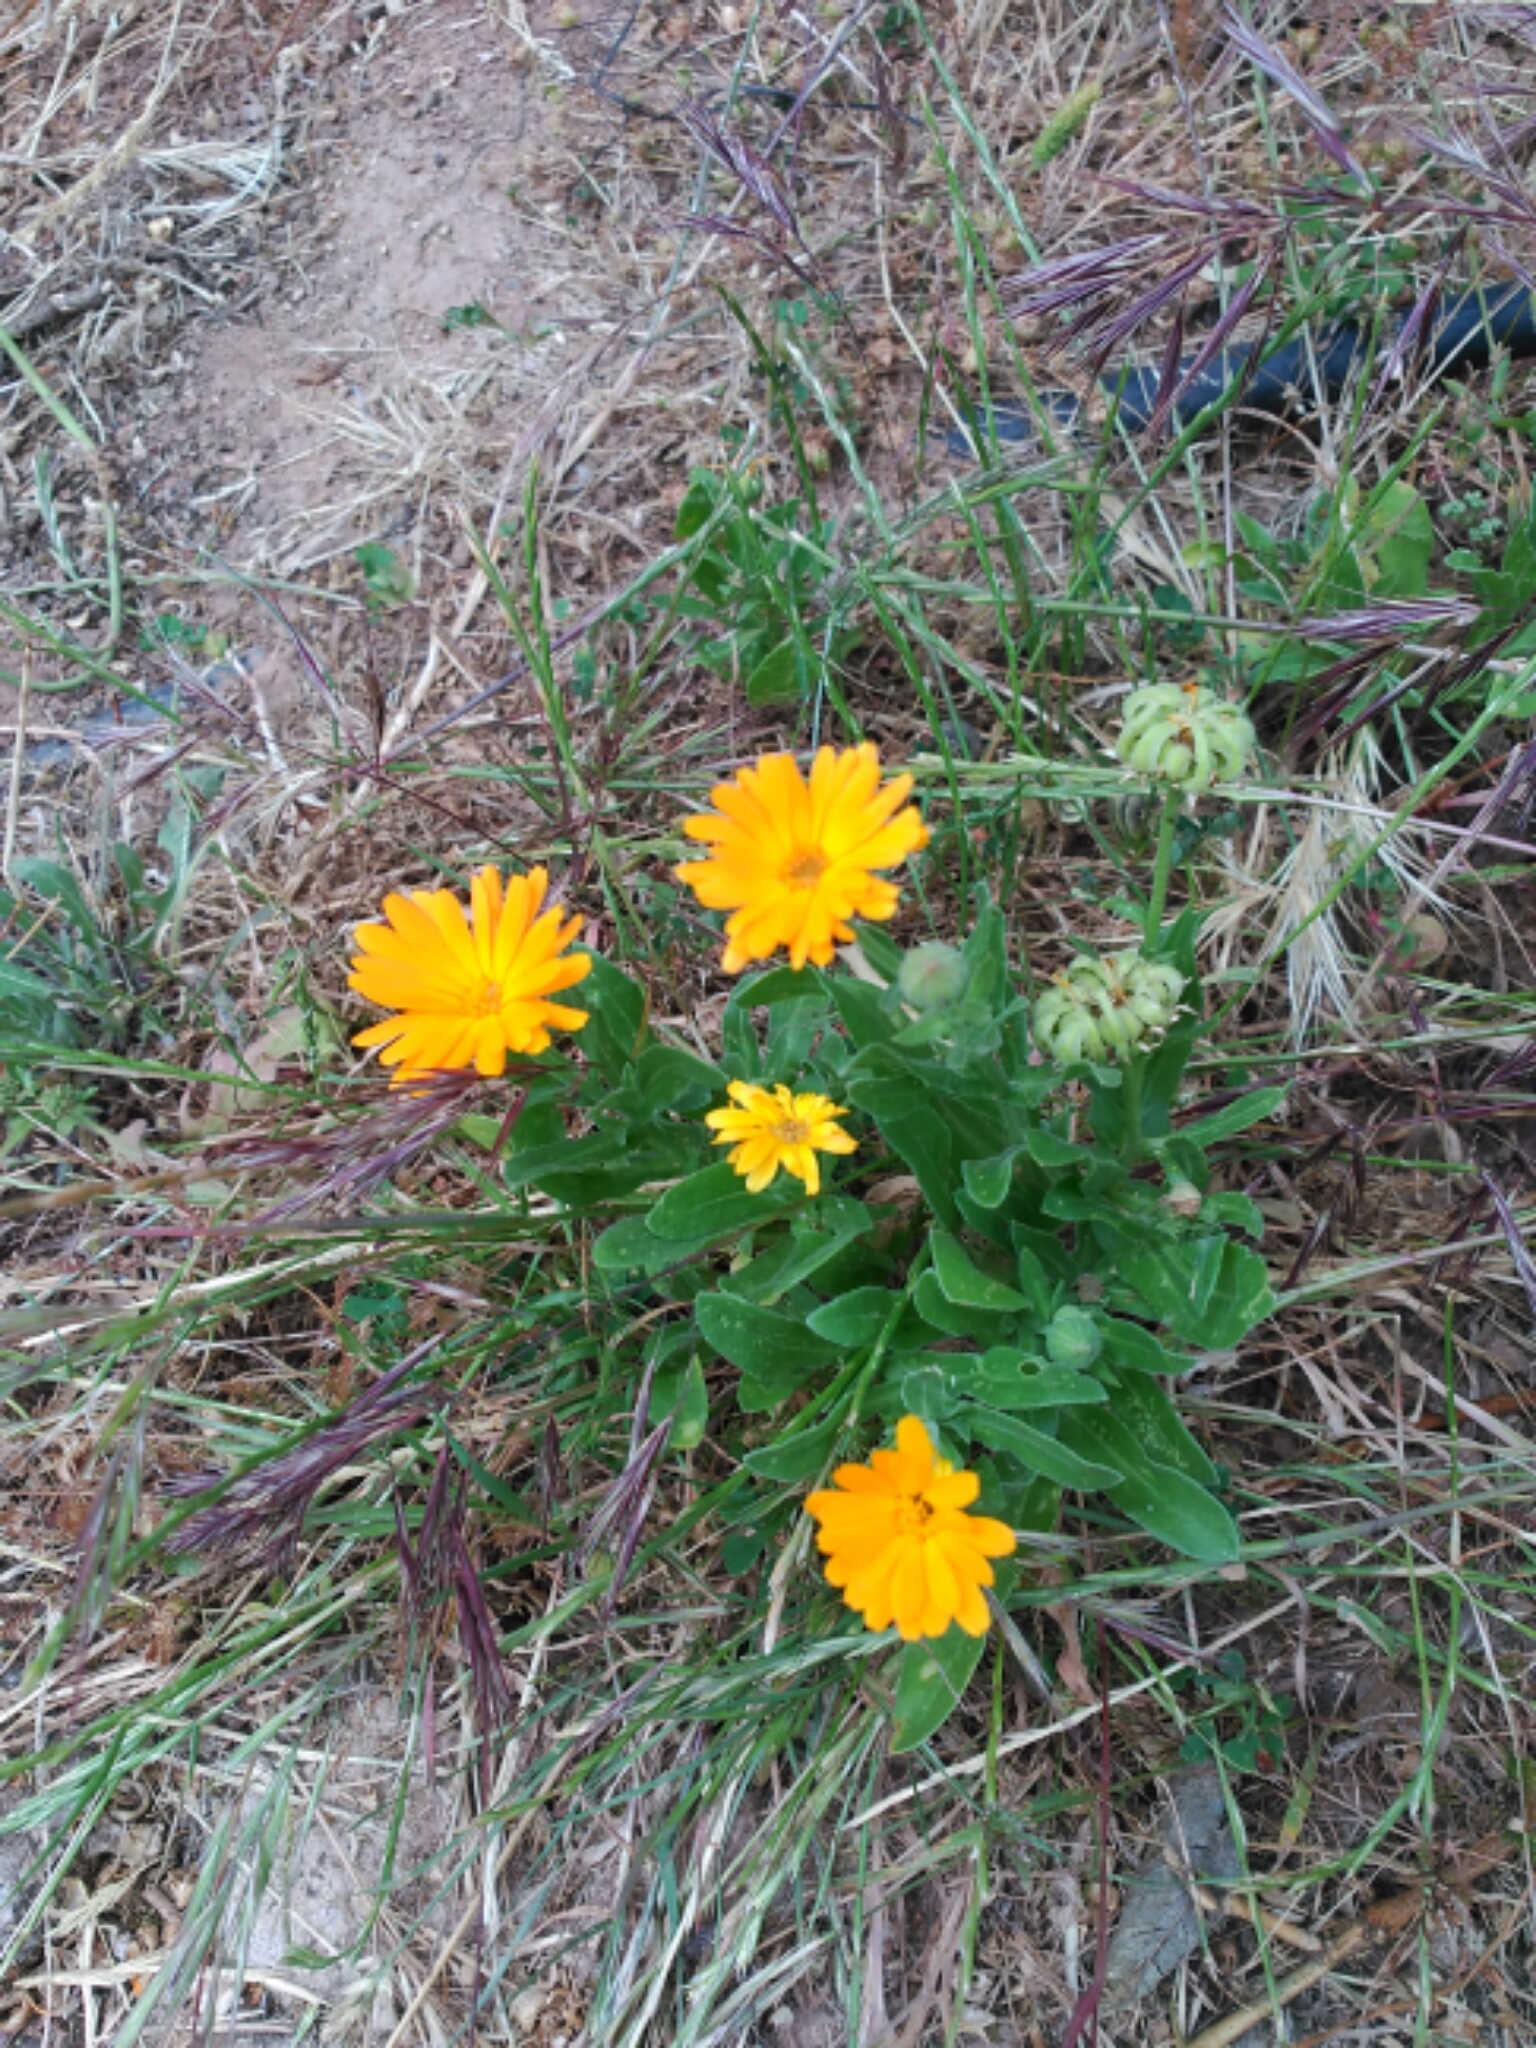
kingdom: Plantae
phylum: Tracheophyta
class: Magnoliopsida
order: Asterales
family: Asteraceae
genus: Calendula
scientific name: Calendula officinalis
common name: Pot marigold
